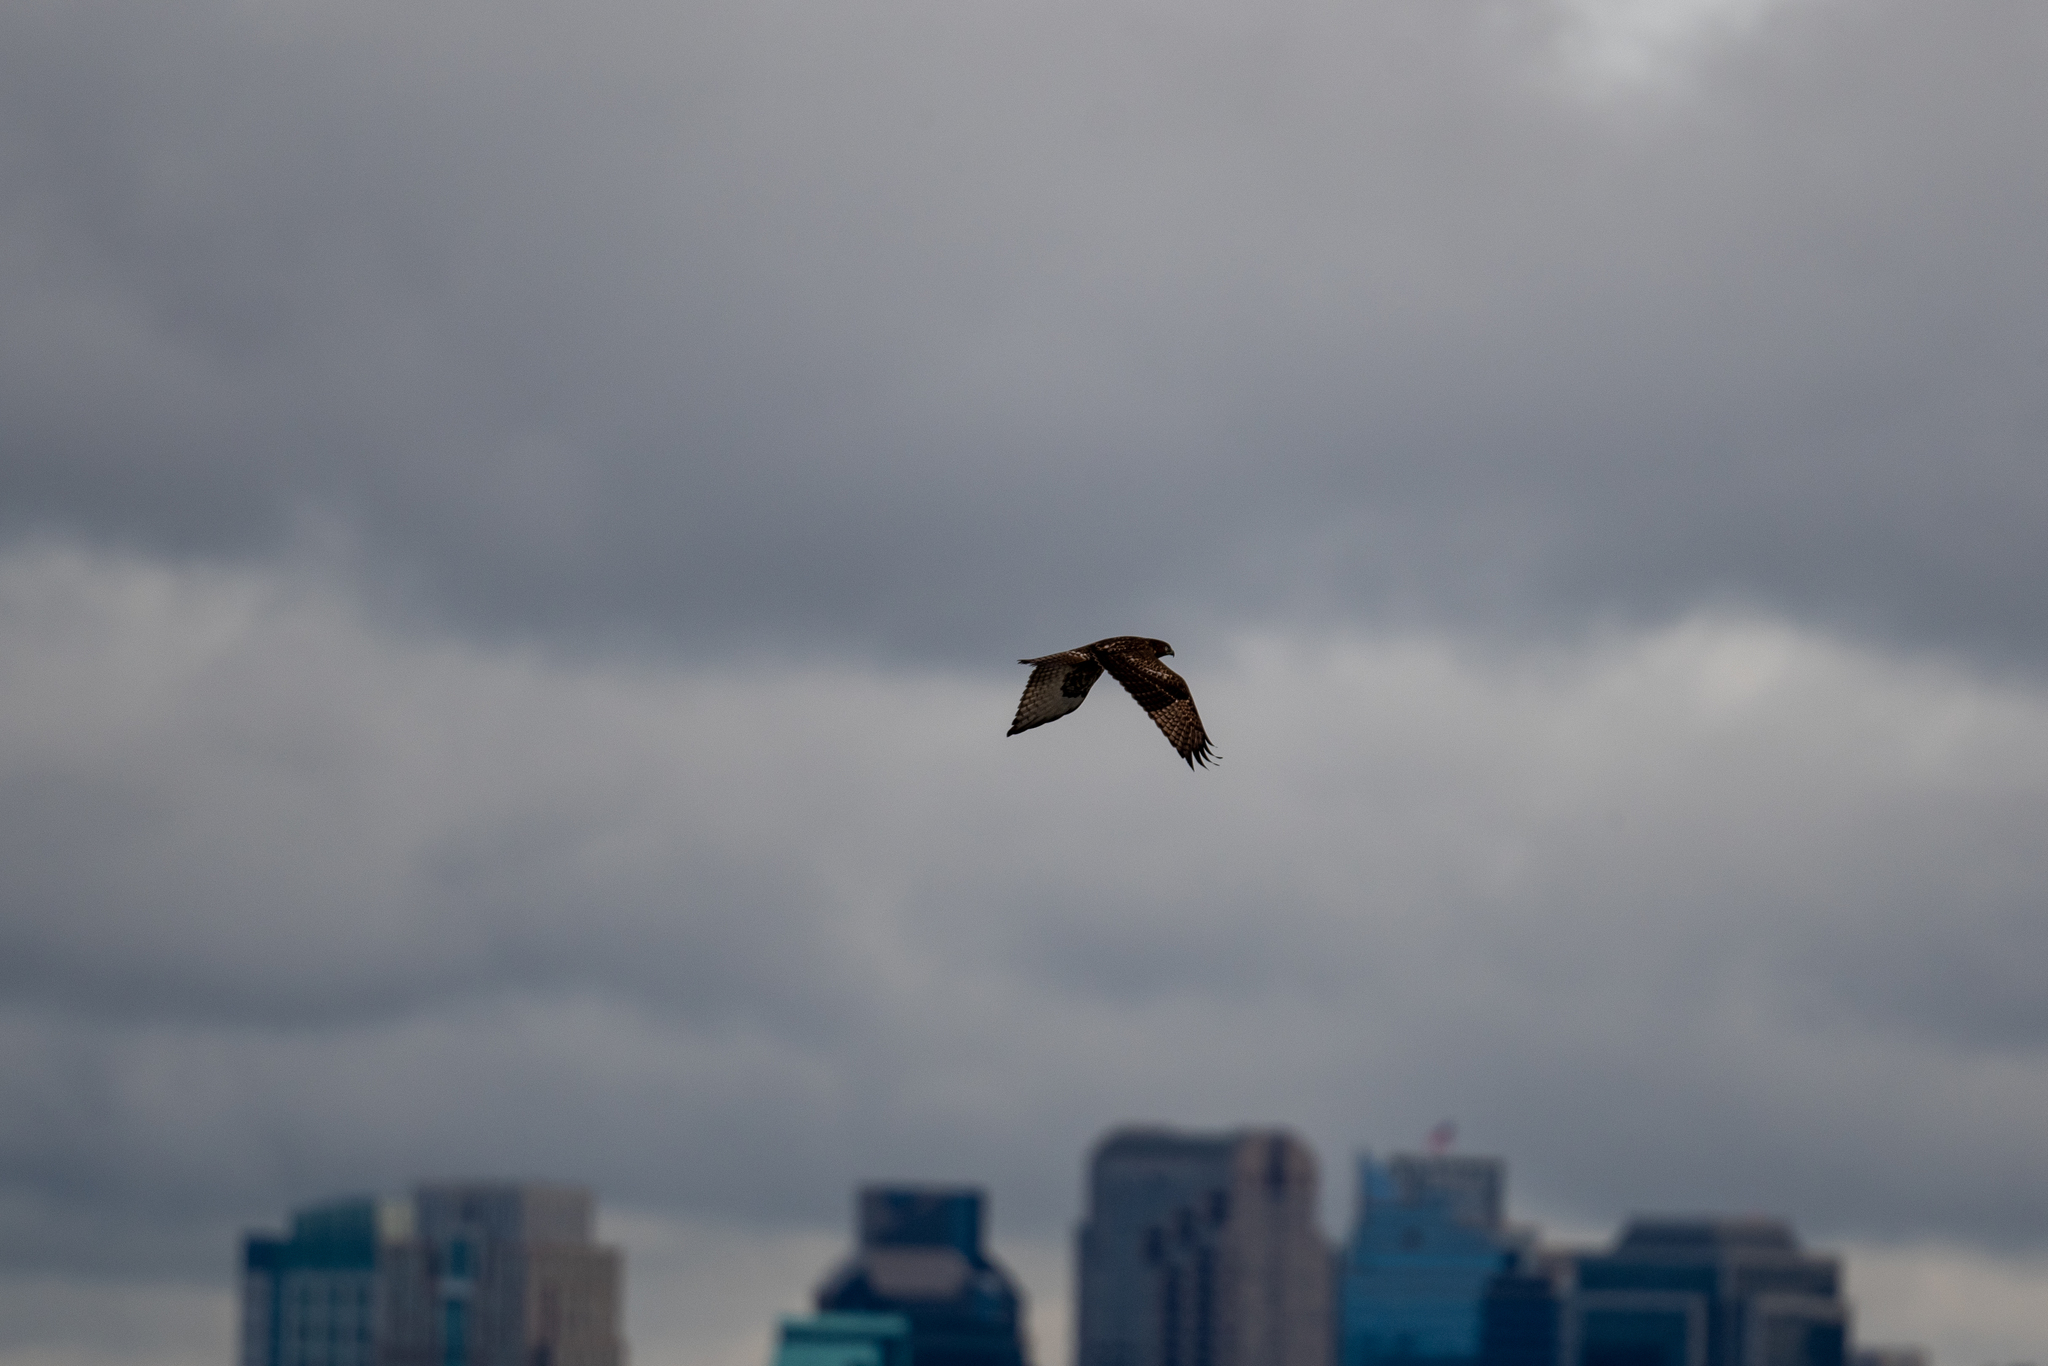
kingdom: Animalia
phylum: Chordata
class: Aves
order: Accipitriformes
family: Accipitridae
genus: Buteo
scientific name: Buteo jamaicensis
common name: Red-tailed hawk
